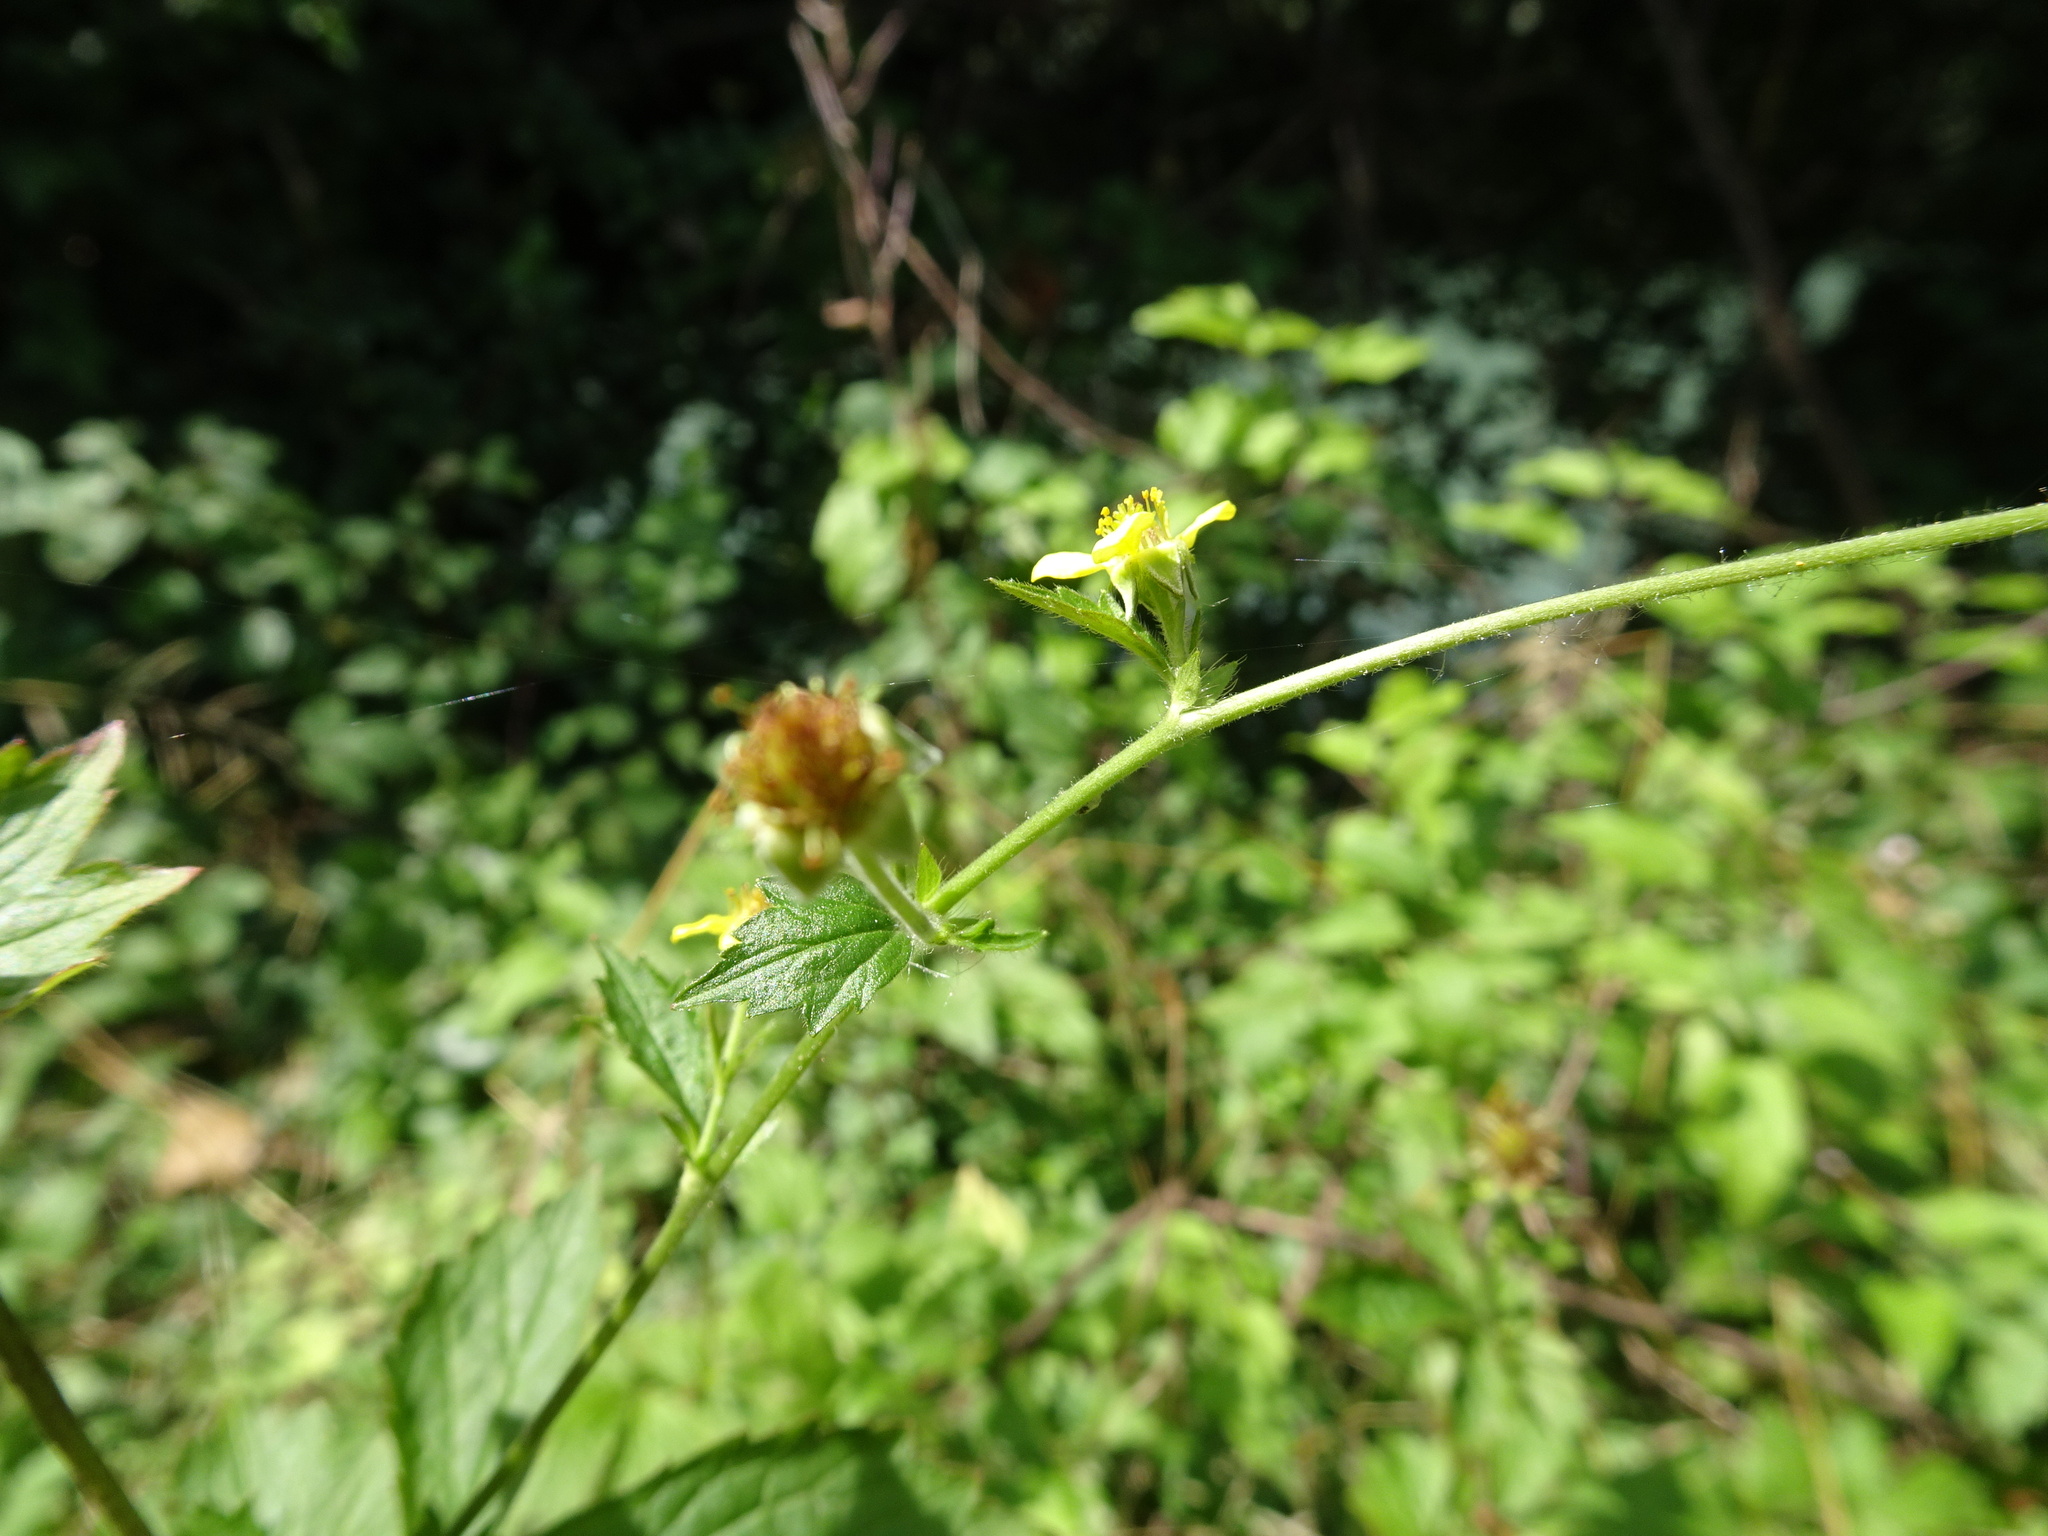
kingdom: Plantae
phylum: Tracheophyta
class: Magnoliopsida
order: Rosales
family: Rosaceae
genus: Geum
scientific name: Geum urbanum
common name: Wood avens
